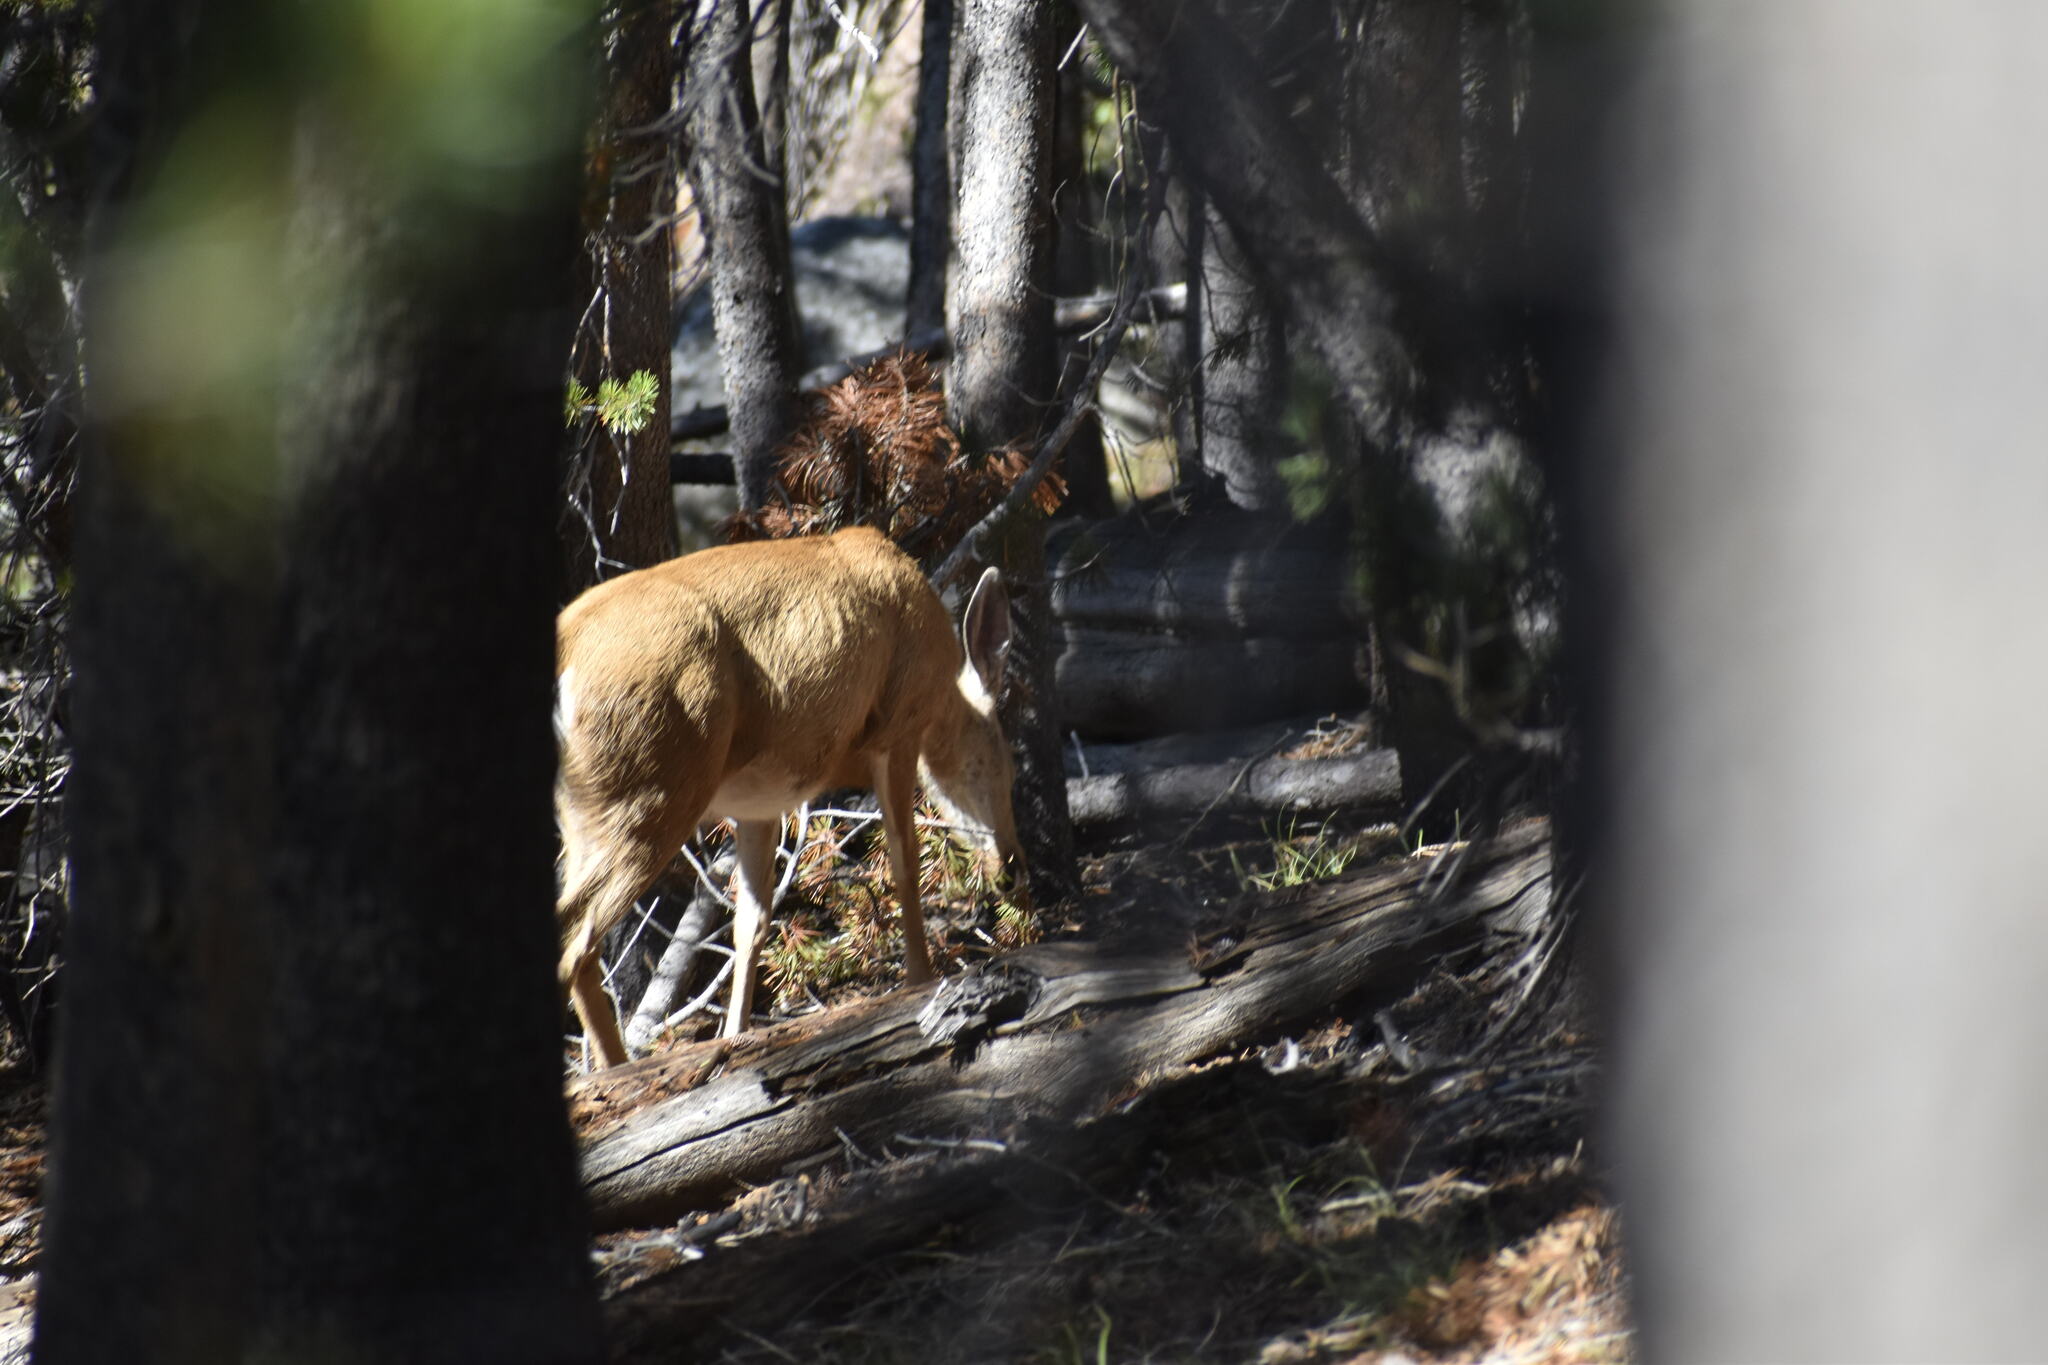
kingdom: Animalia
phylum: Chordata
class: Mammalia
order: Artiodactyla
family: Cervidae
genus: Odocoileus
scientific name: Odocoileus hemionus
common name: Mule deer
